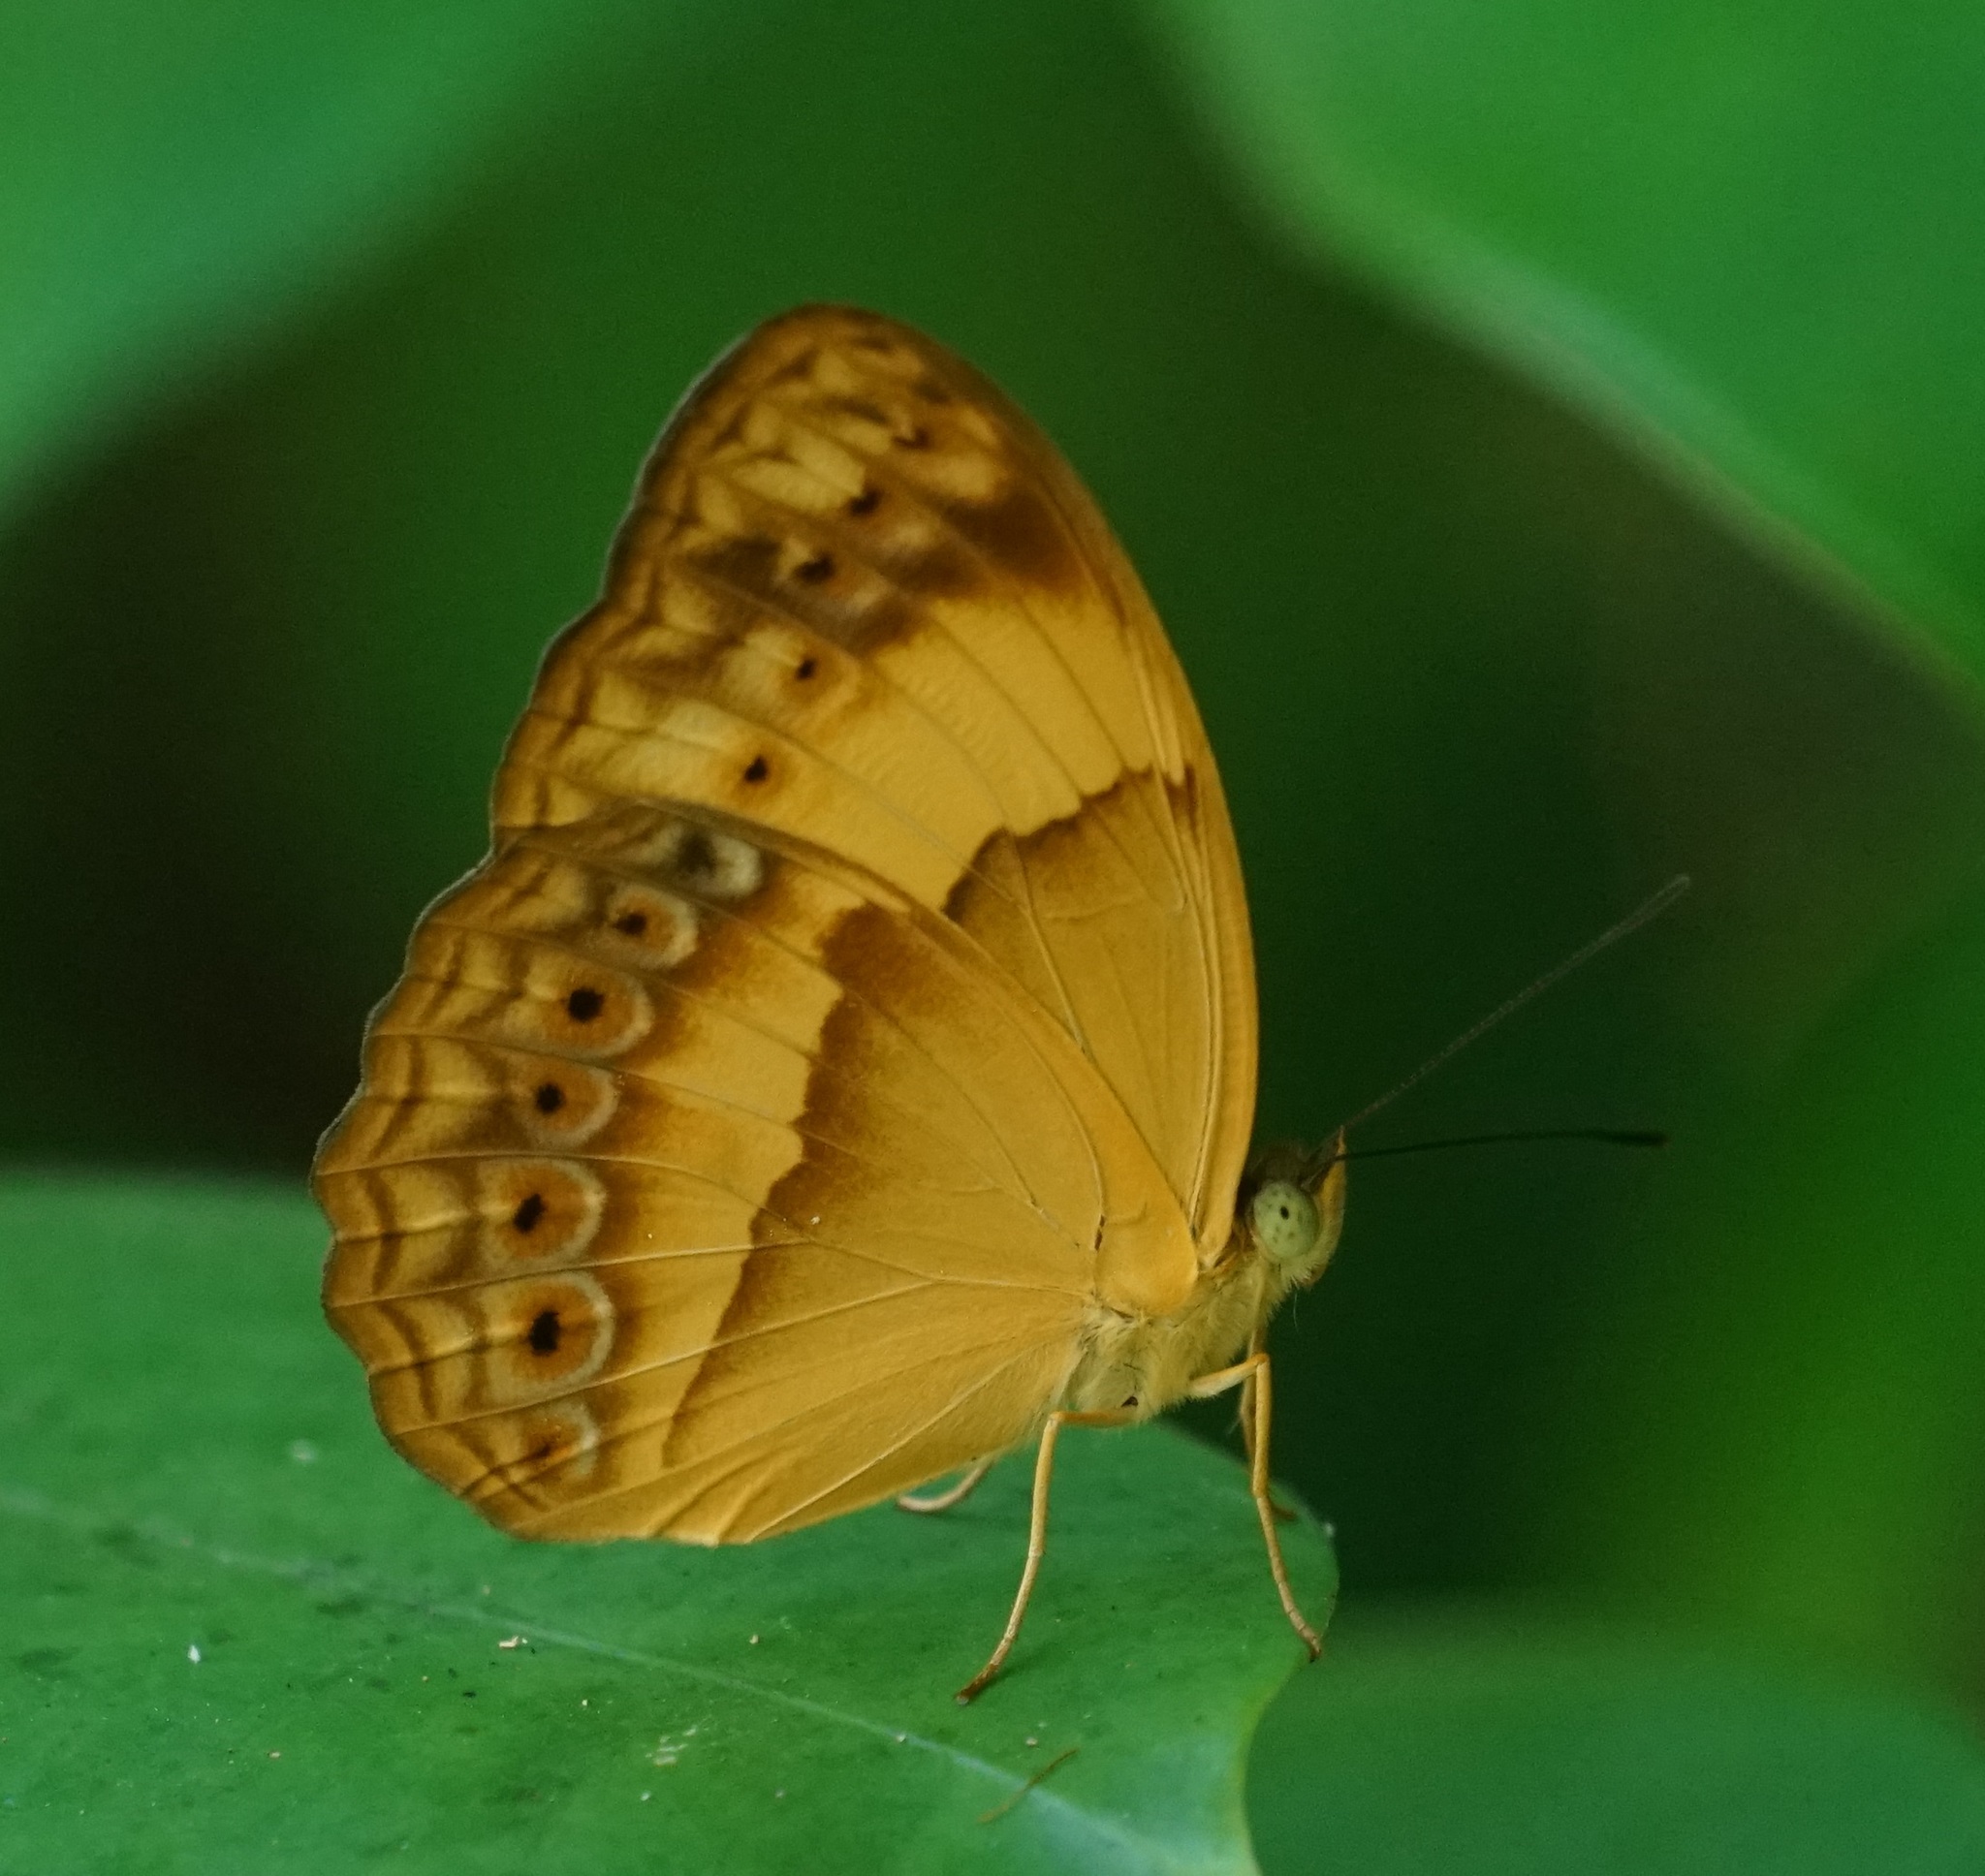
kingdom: Animalia
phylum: Arthropoda
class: Insecta
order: Lepidoptera
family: Nymphalidae
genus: Cupha
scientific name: Cupha prosope
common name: Bordered rustic
